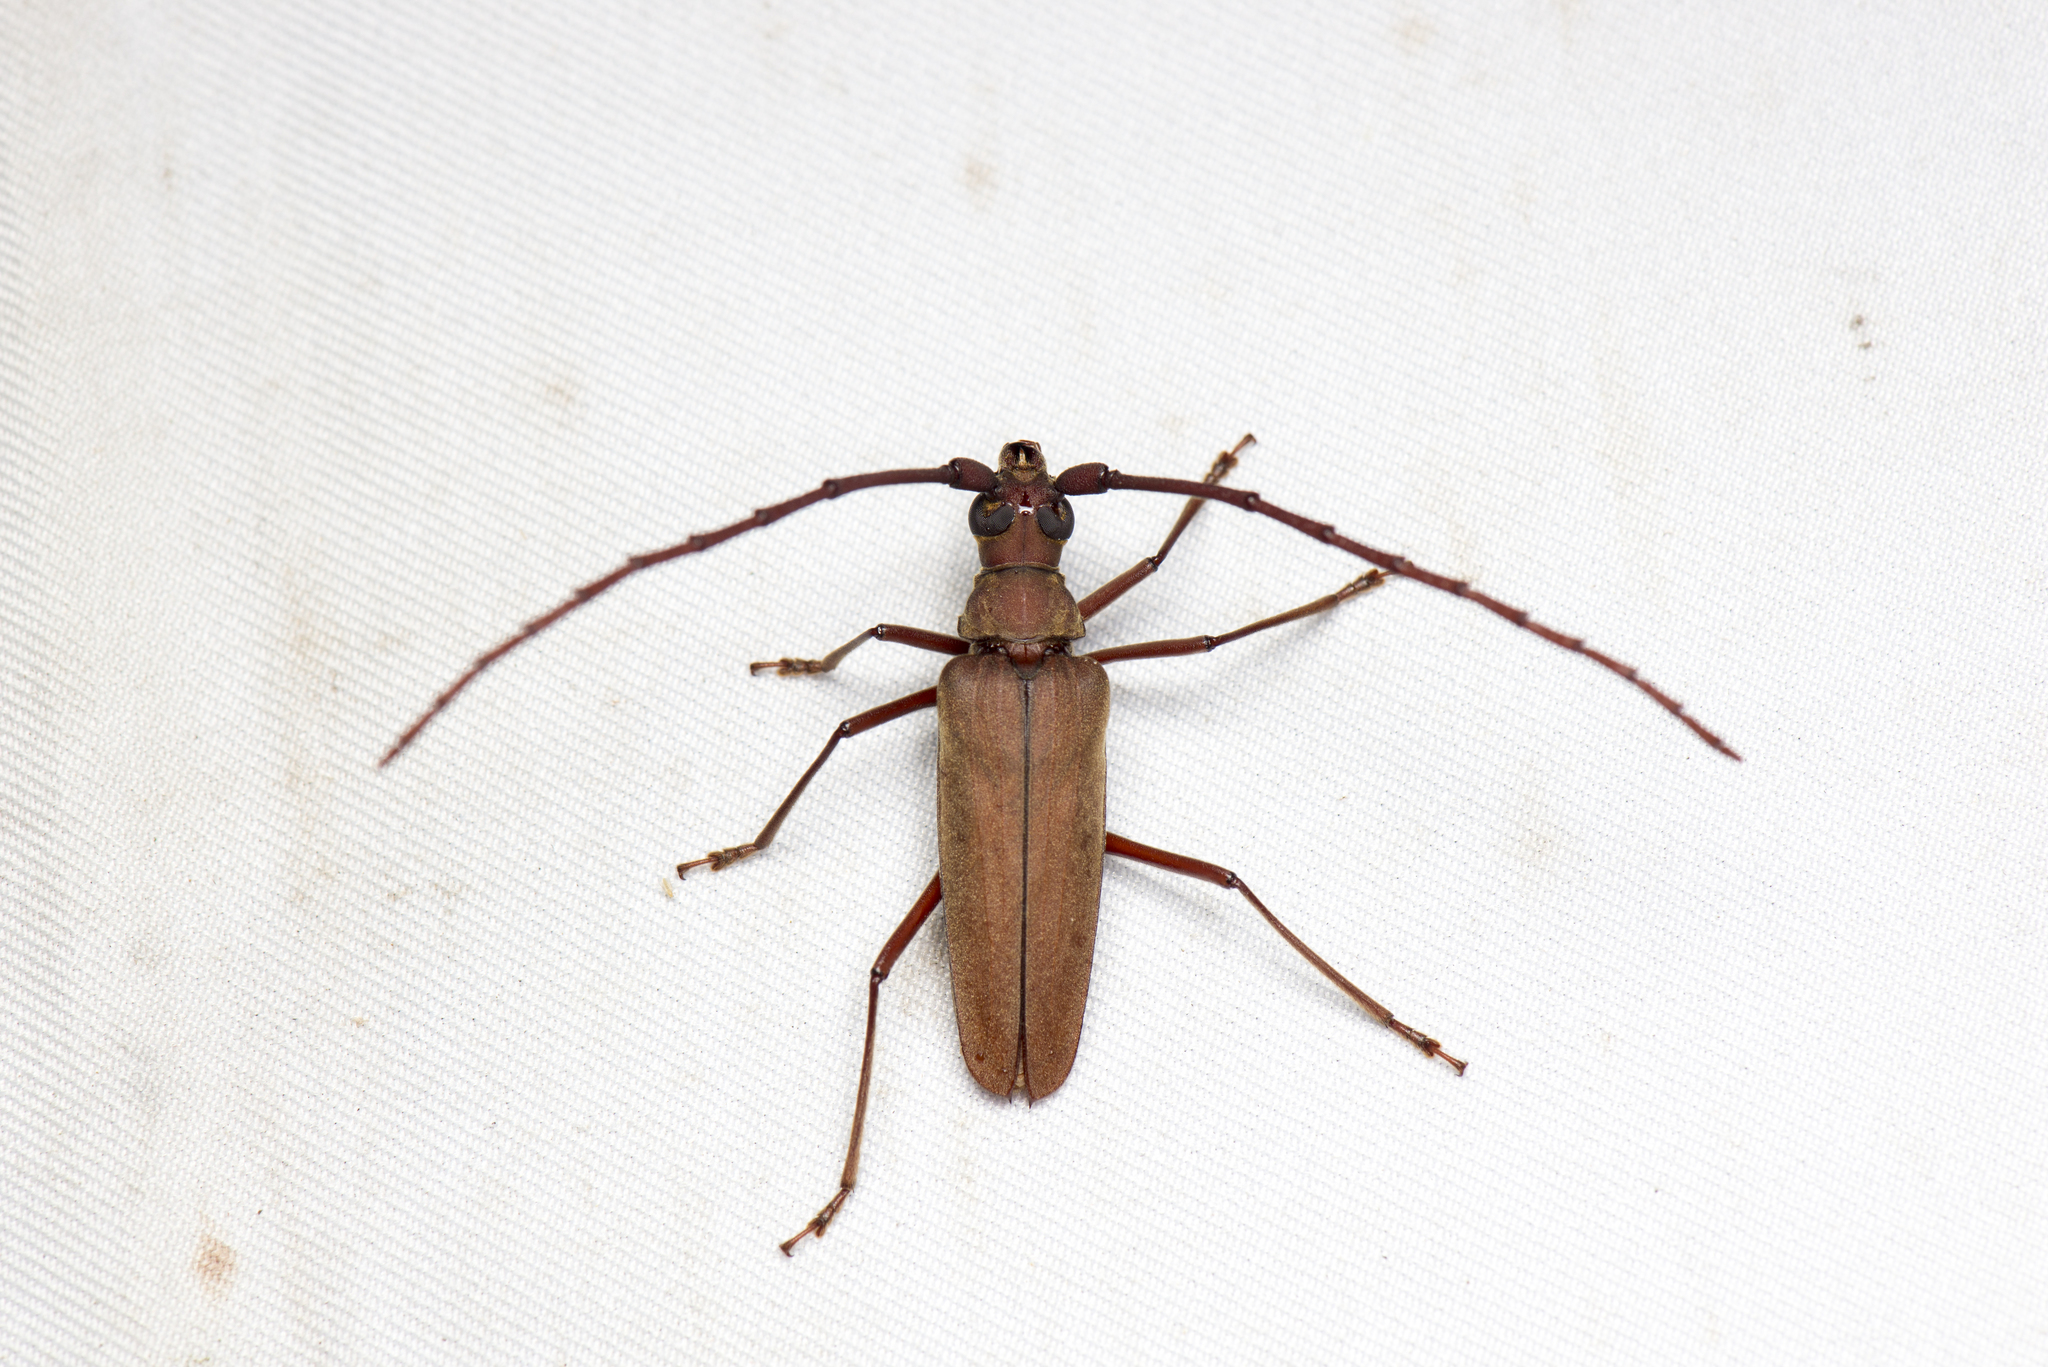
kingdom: Animalia
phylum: Arthropoda
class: Insecta
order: Coleoptera
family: Cerambycidae
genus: Aegolipton
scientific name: Aegolipton sauteri
